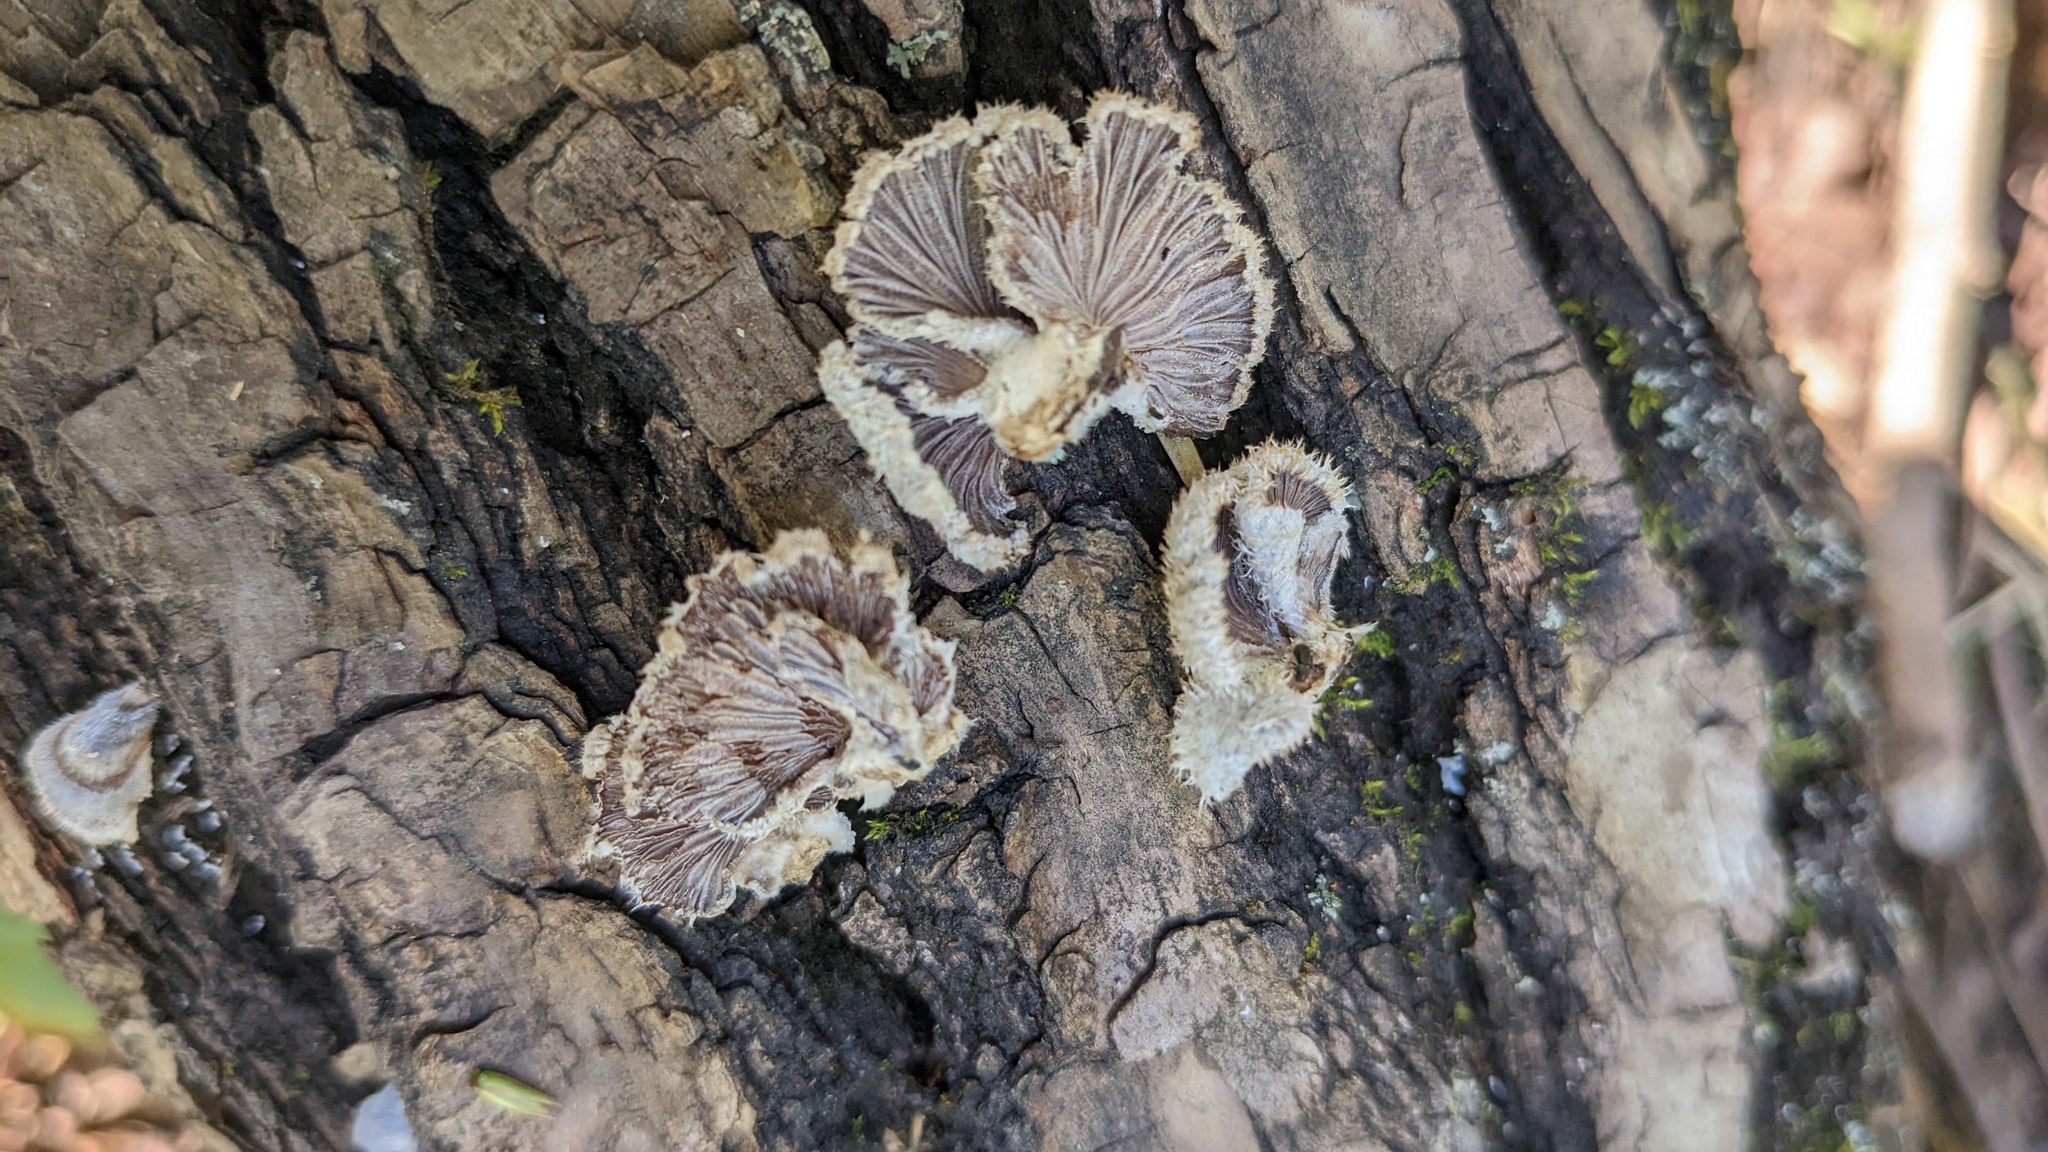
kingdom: Fungi
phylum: Basidiomycota
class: Agaricomycetes
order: Agaricales
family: Schizophyllaceae
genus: Schizophyllum
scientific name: Schizophyllum commune
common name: Common porecrust
